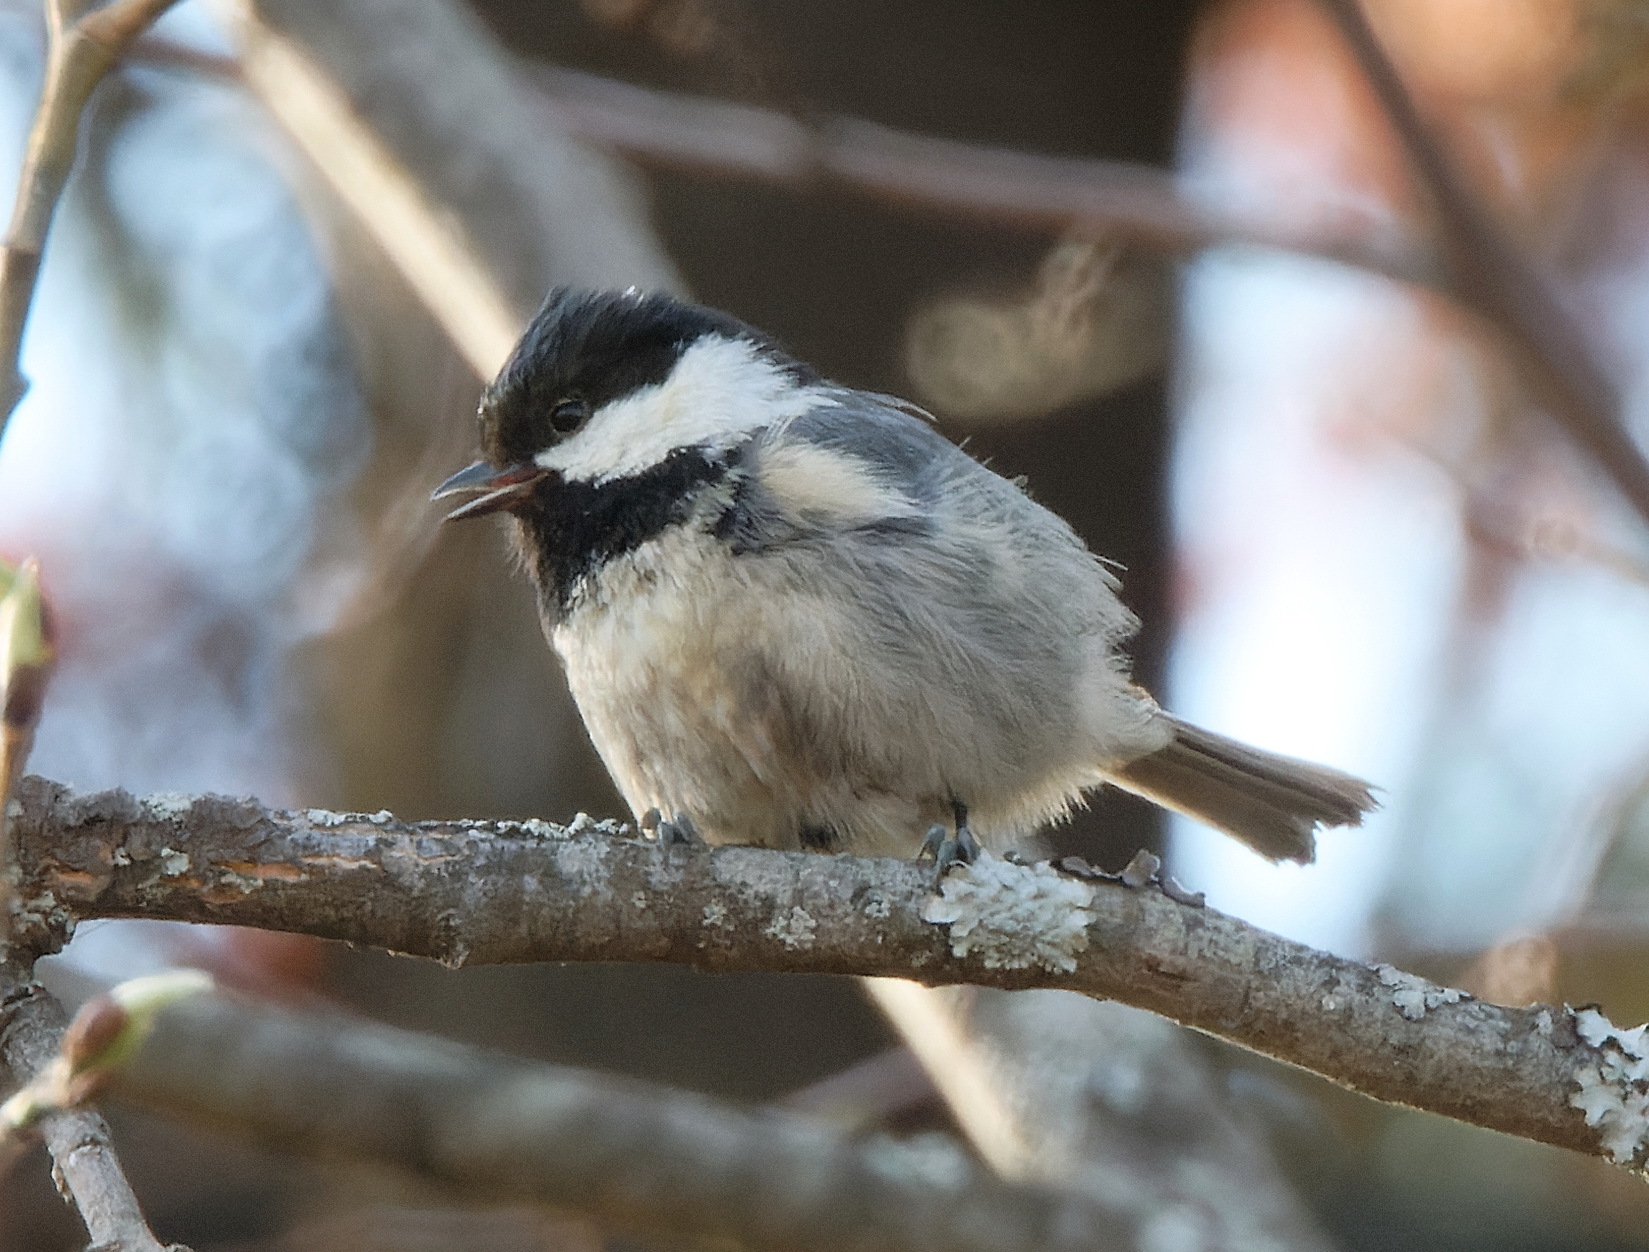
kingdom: Animalia
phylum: Chordata
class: Aves
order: Passeriformes
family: Paridae
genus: Periparus
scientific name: Periparus ater
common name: Coal tit
